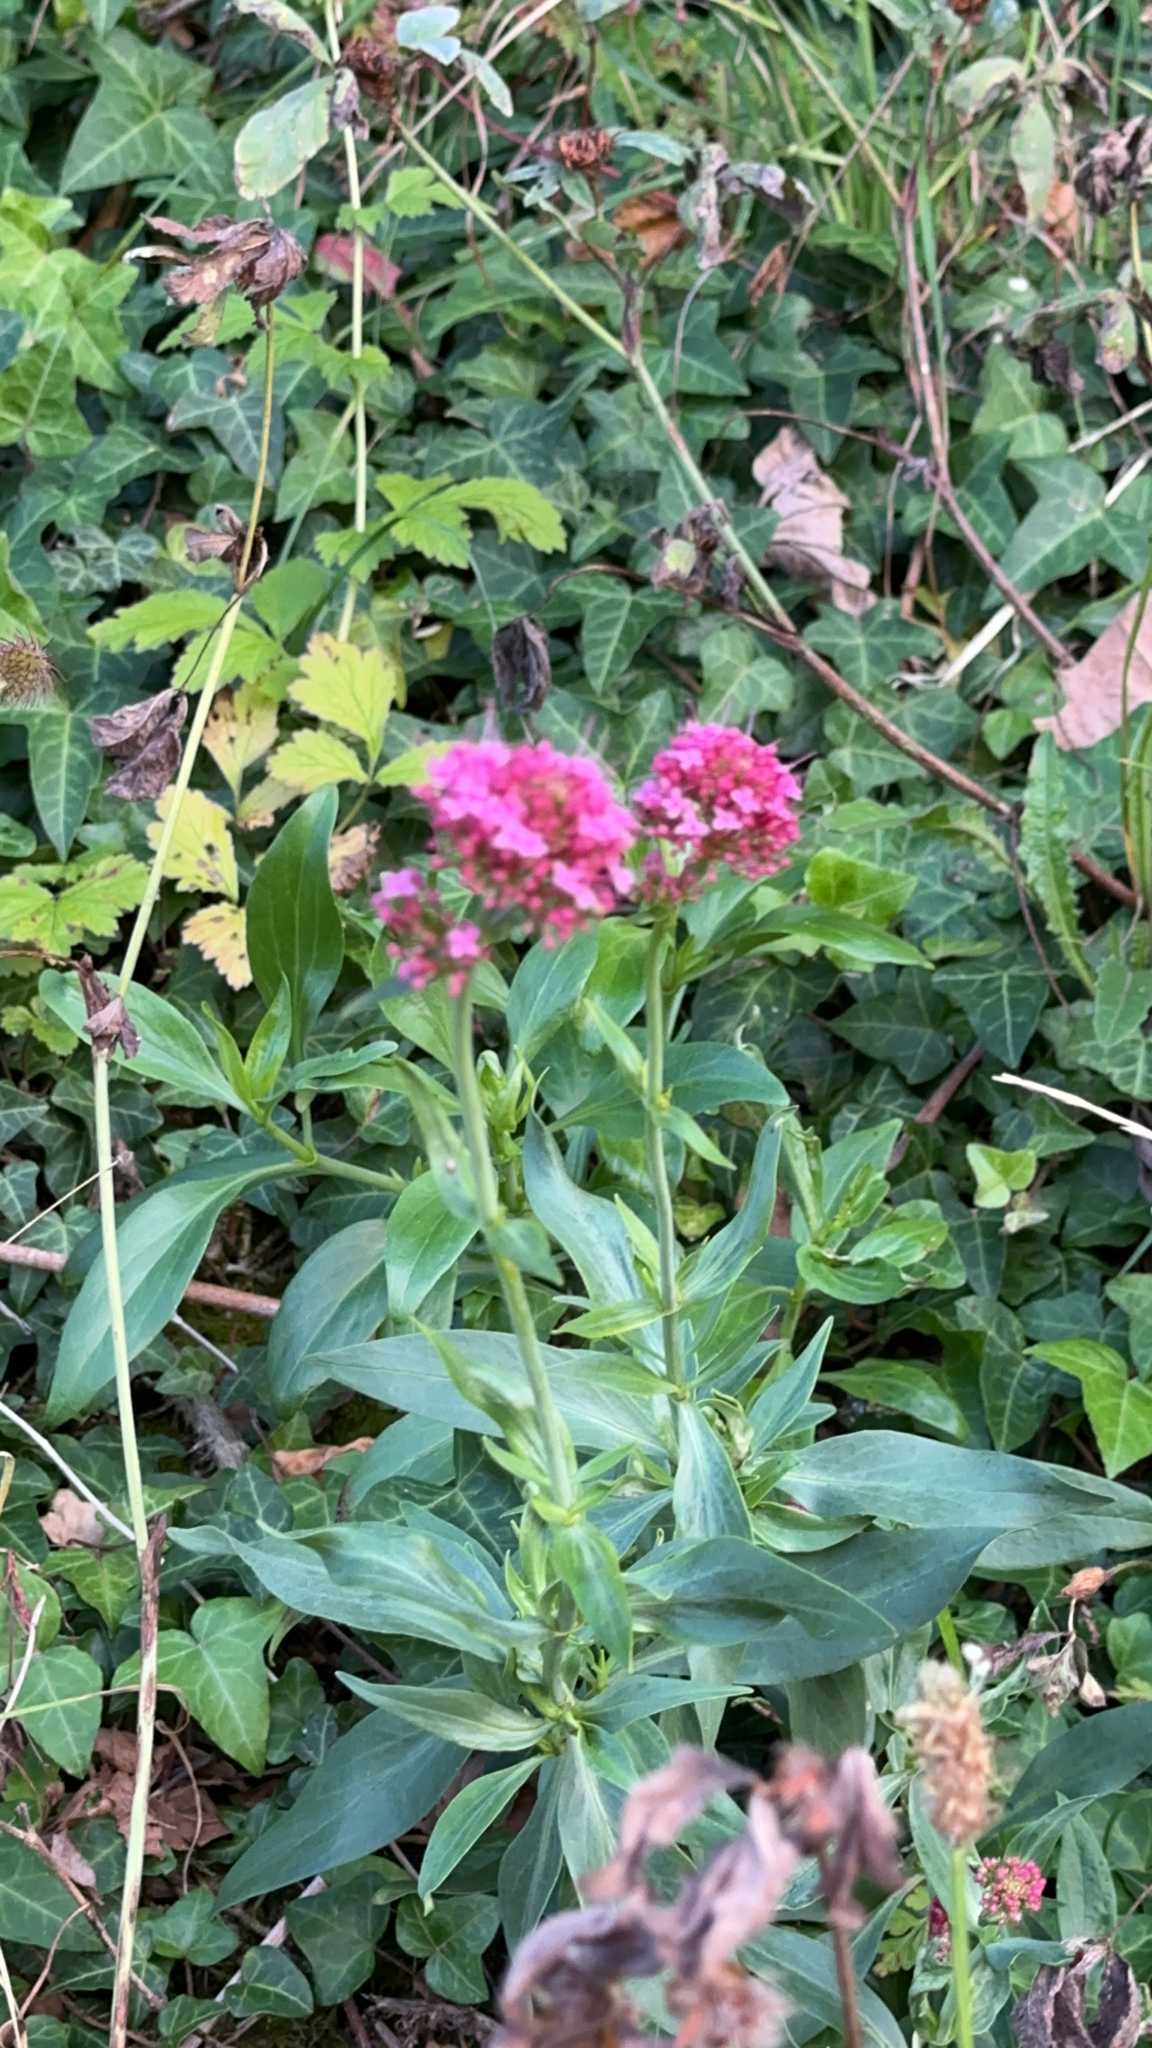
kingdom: Plantae
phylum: Tracheophyta
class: Magnoliopsida
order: Dipsacales
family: Caprifoliaceae
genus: Centranthus
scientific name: Centranthus ruber
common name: Red valerian
